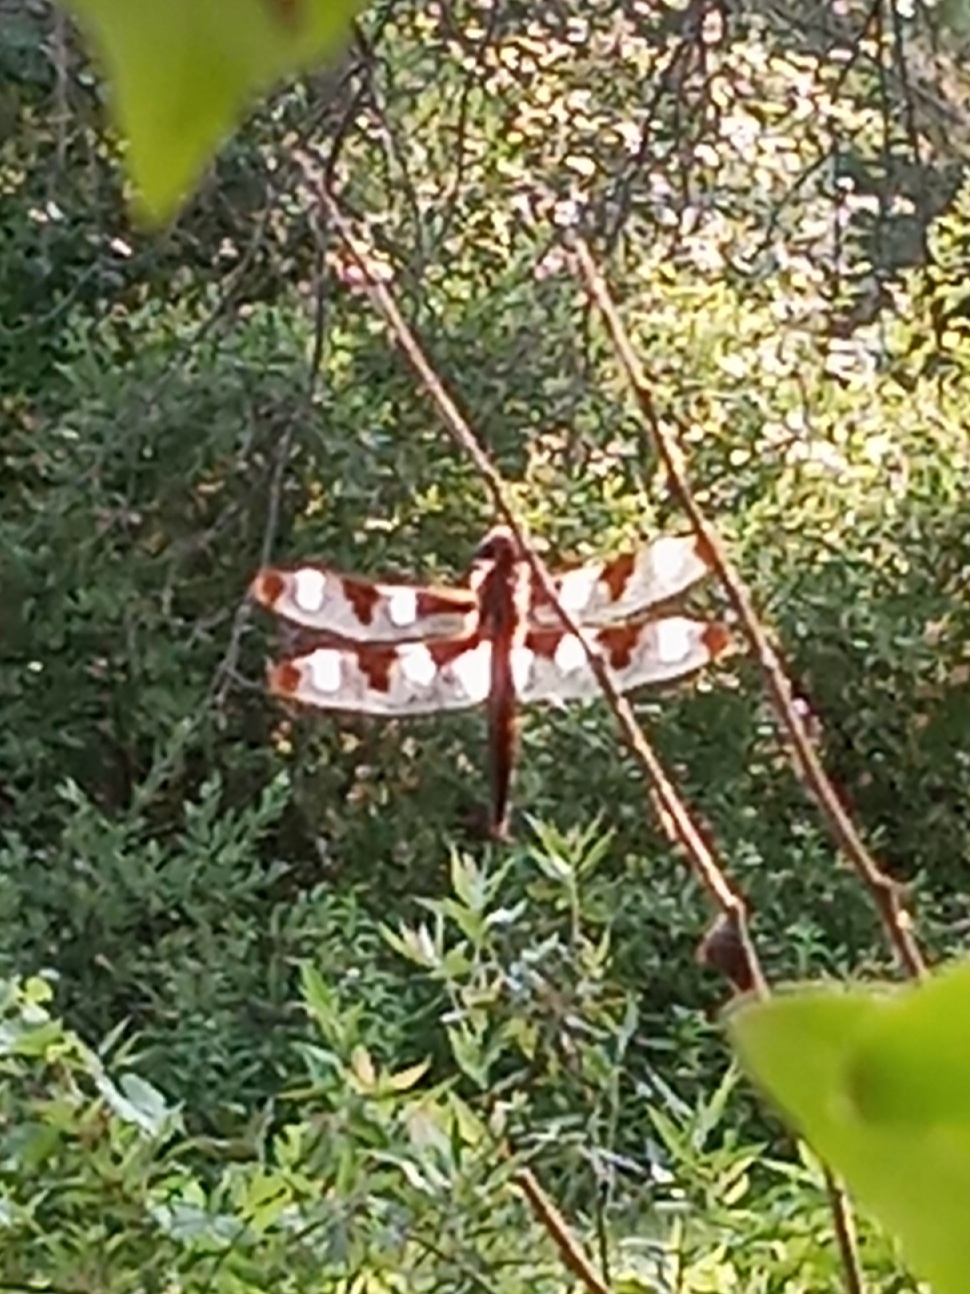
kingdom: Animalia
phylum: Arthropoda
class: Insecta
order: Odonata
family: Libellulidae
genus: Libellula
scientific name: Libellula pulchella
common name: Twelve-spotted skimmer
